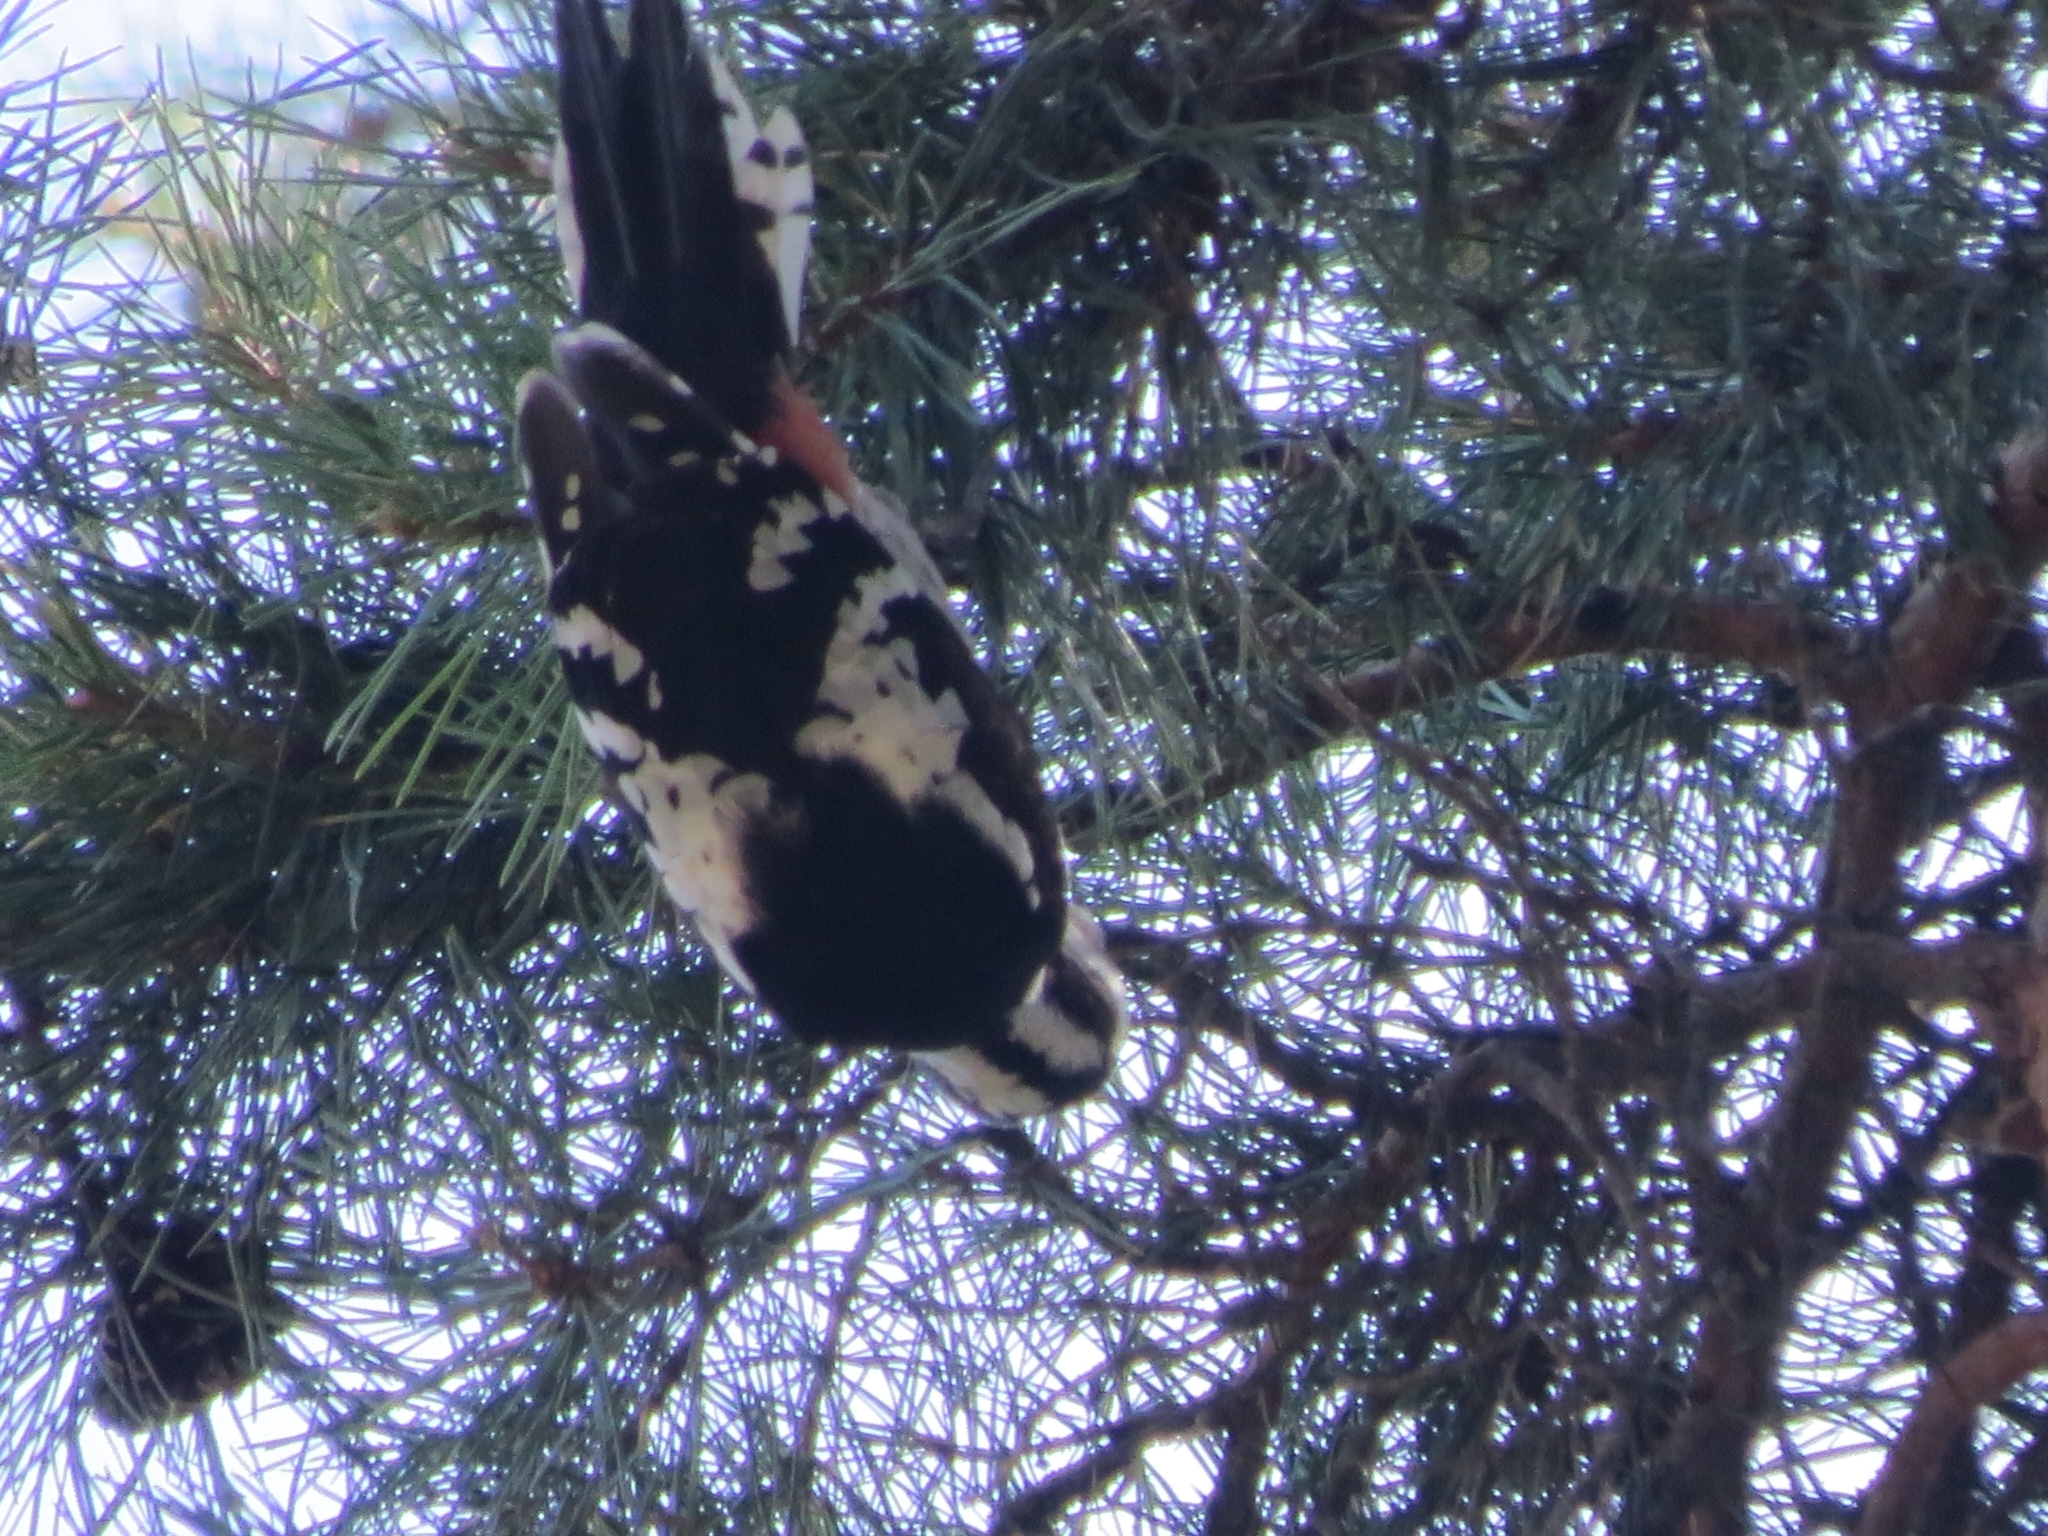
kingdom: Animalia
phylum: Chordata
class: Aves
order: Piciformes
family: Picidae
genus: Dendrocopos
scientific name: Dendrocopos major
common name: Great spotted woodpecker
